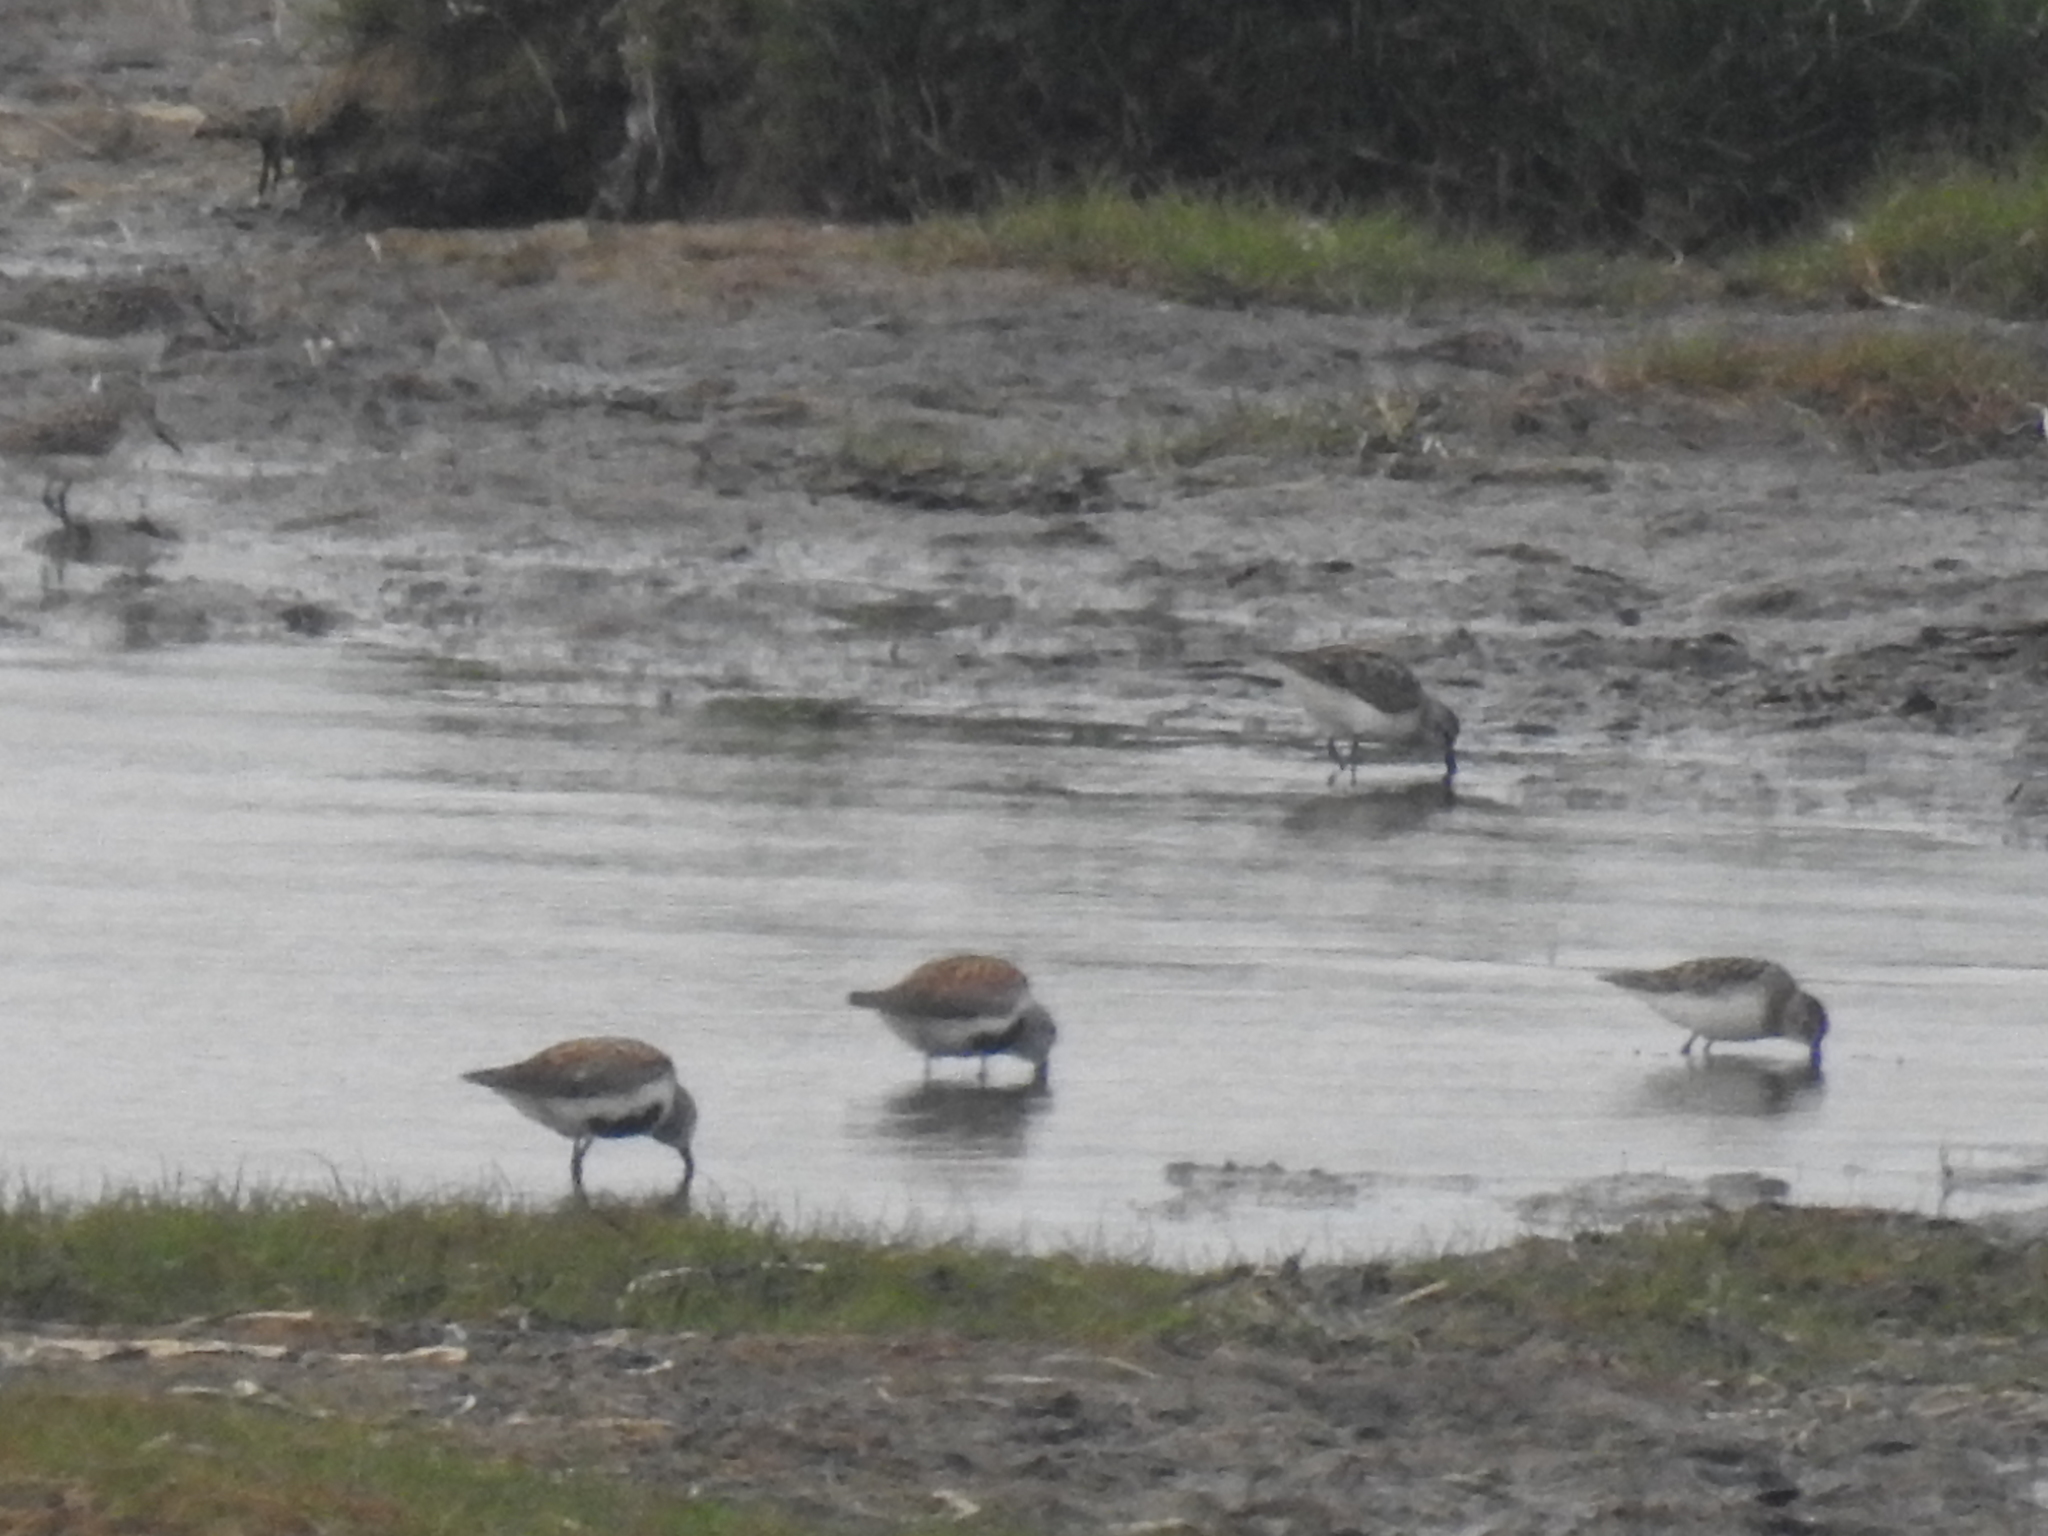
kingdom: Animalia
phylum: Chordata
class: Aves
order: Charadriiformes
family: Scolopacidae
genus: Calidris
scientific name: Calidris alpina
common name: Dunlin
